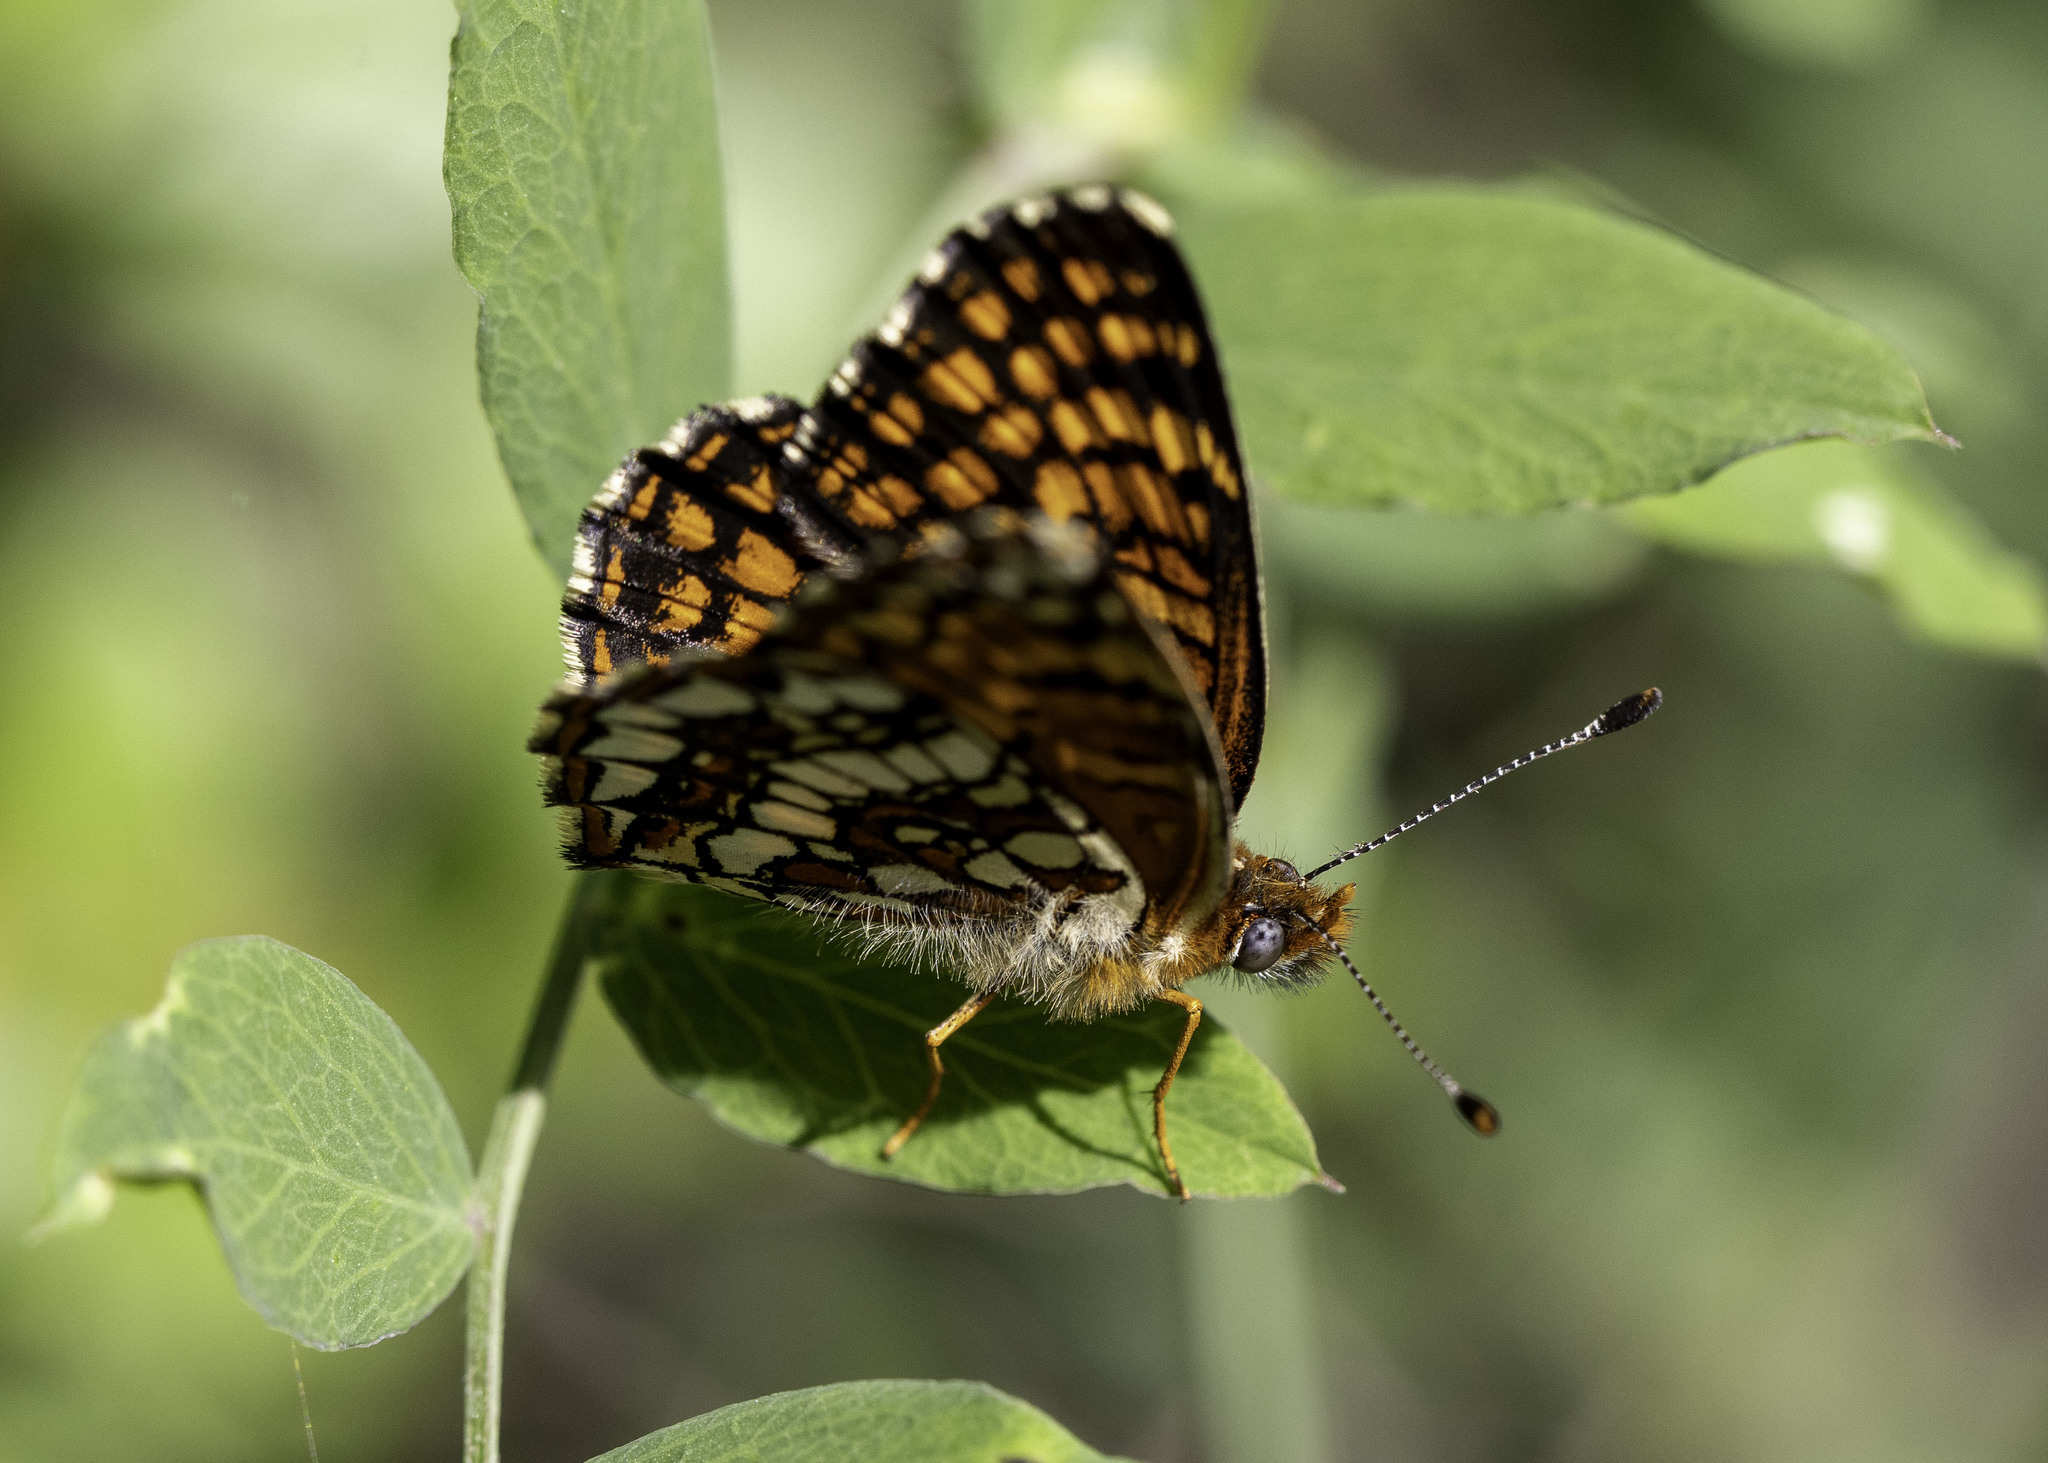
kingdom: Animalia
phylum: Arthropoda
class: Insecta
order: Lepidoptera
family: Nymphalidae
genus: Chlosyne
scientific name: Chlosyne gabbii
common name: Gabb's checkerspot
